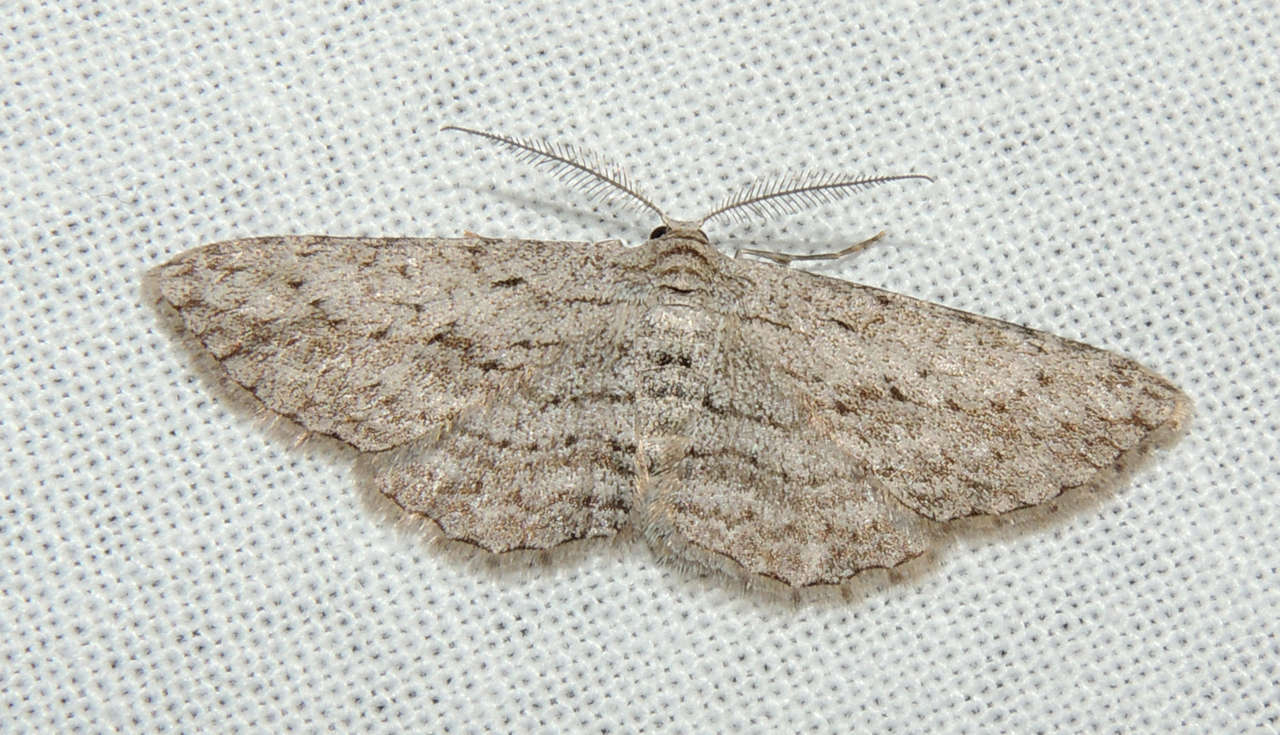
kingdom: Animalia
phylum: Arthropoda
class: Insecta
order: Lepidoptera
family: Geometridae
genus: Phelotis
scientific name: Phelotis cognata
